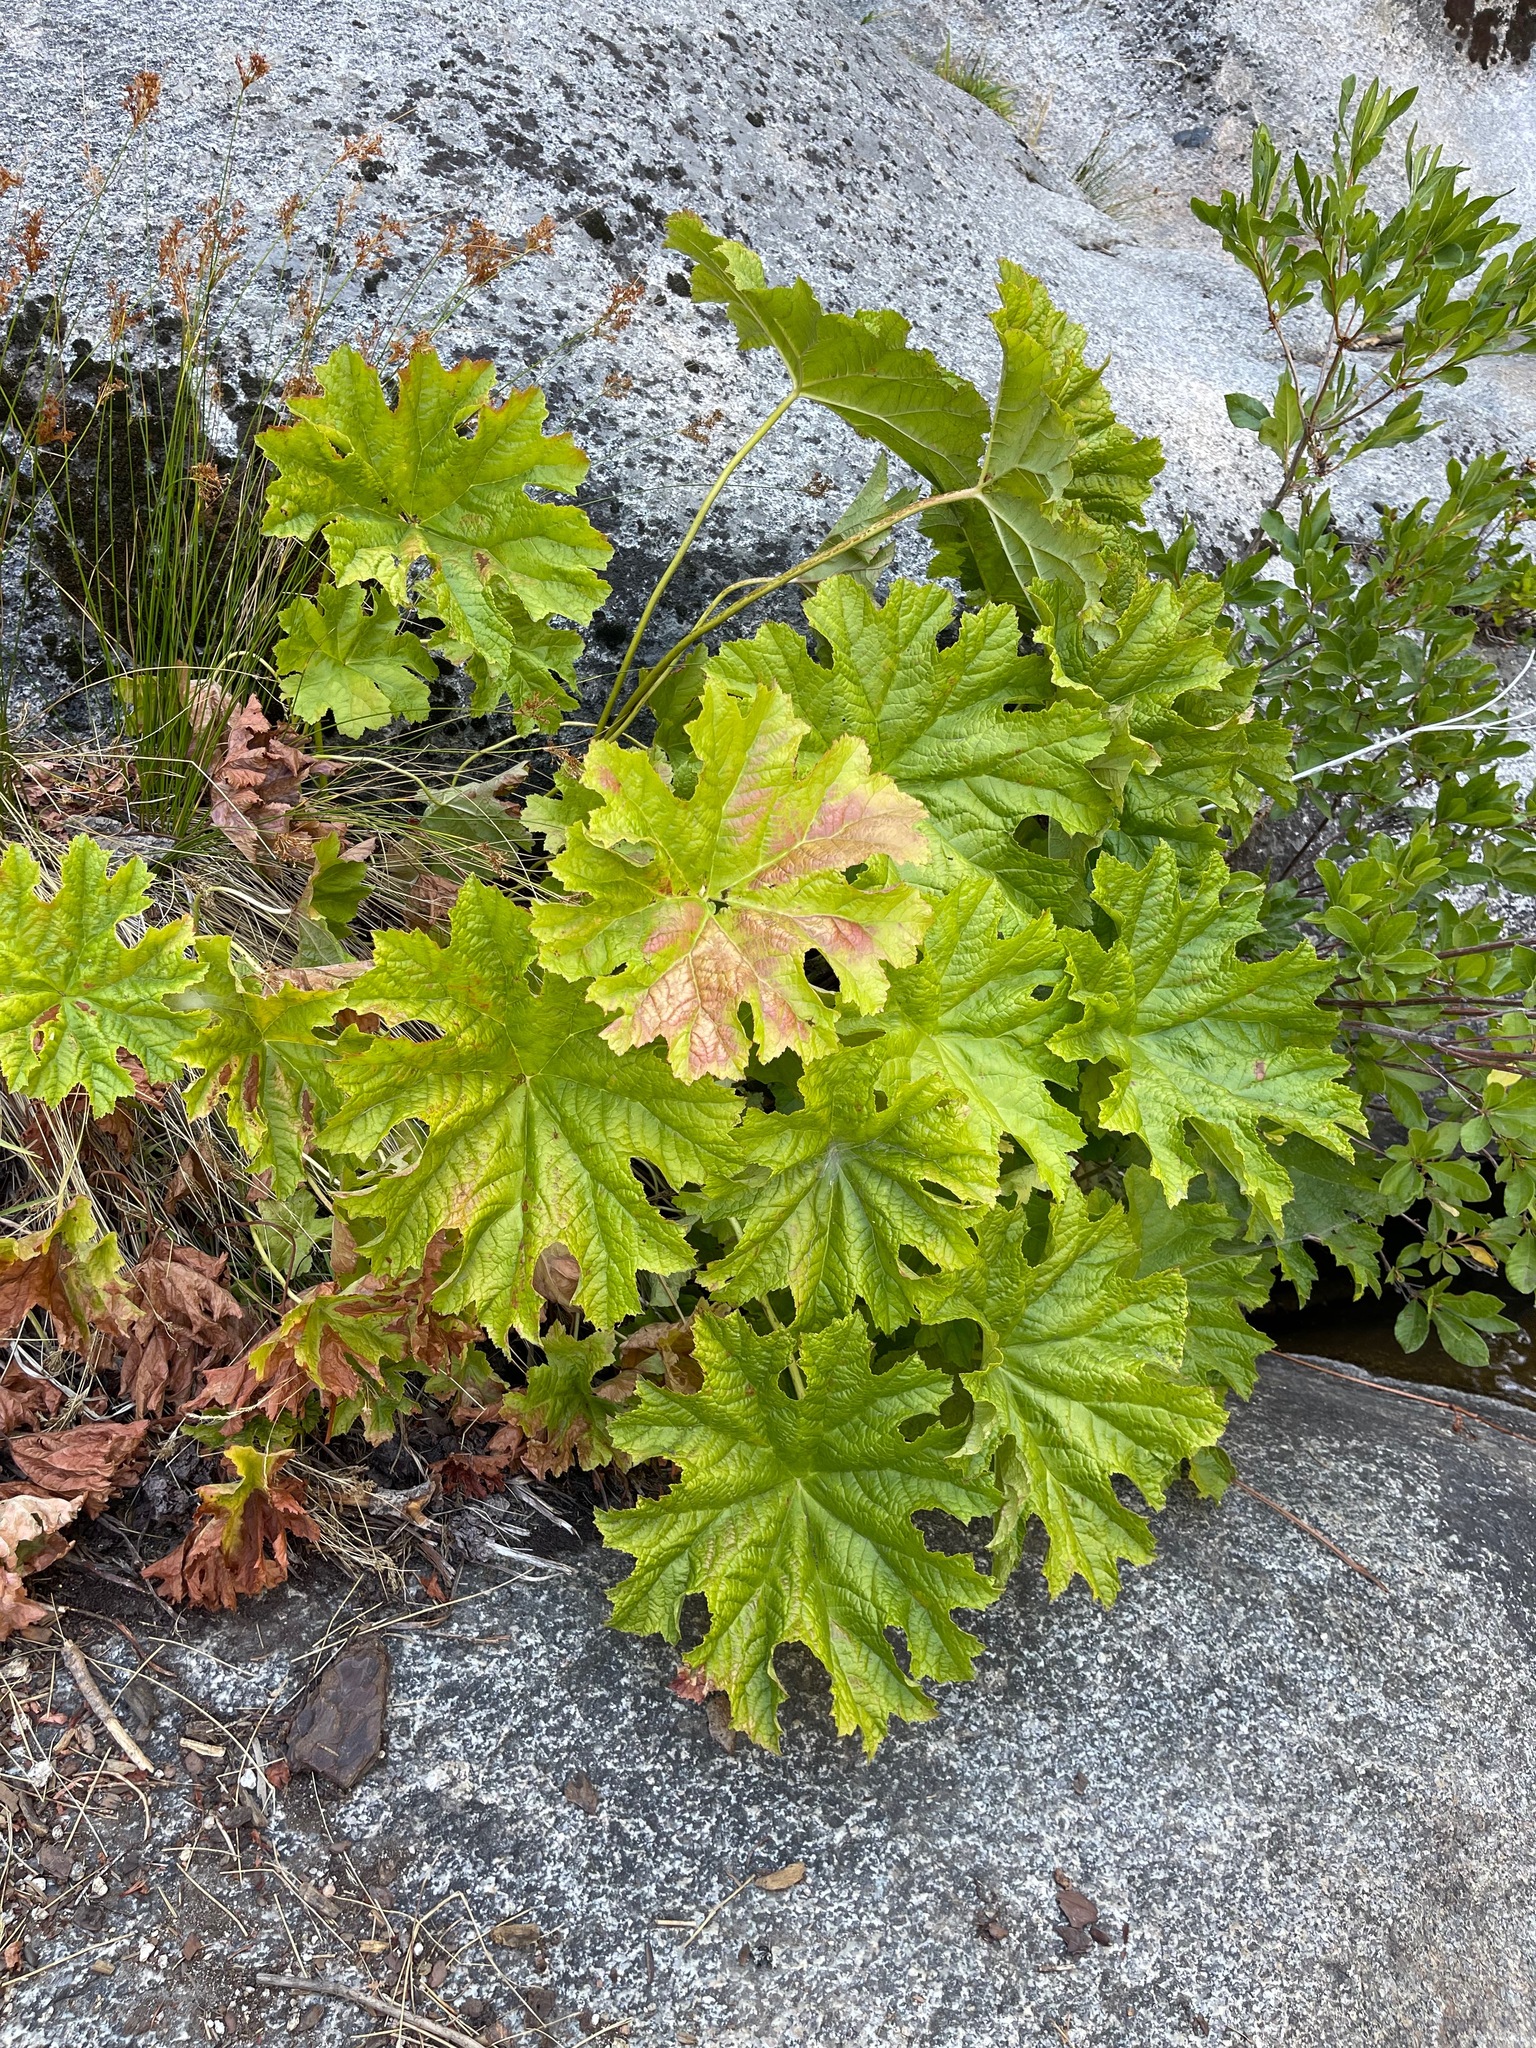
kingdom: Plantae
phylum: Tracheophyta
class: Magnoliopsida
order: Saxifragales
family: Saxifragaceae
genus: Darmera
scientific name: Darmera peltata
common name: Indian-rhubarb
